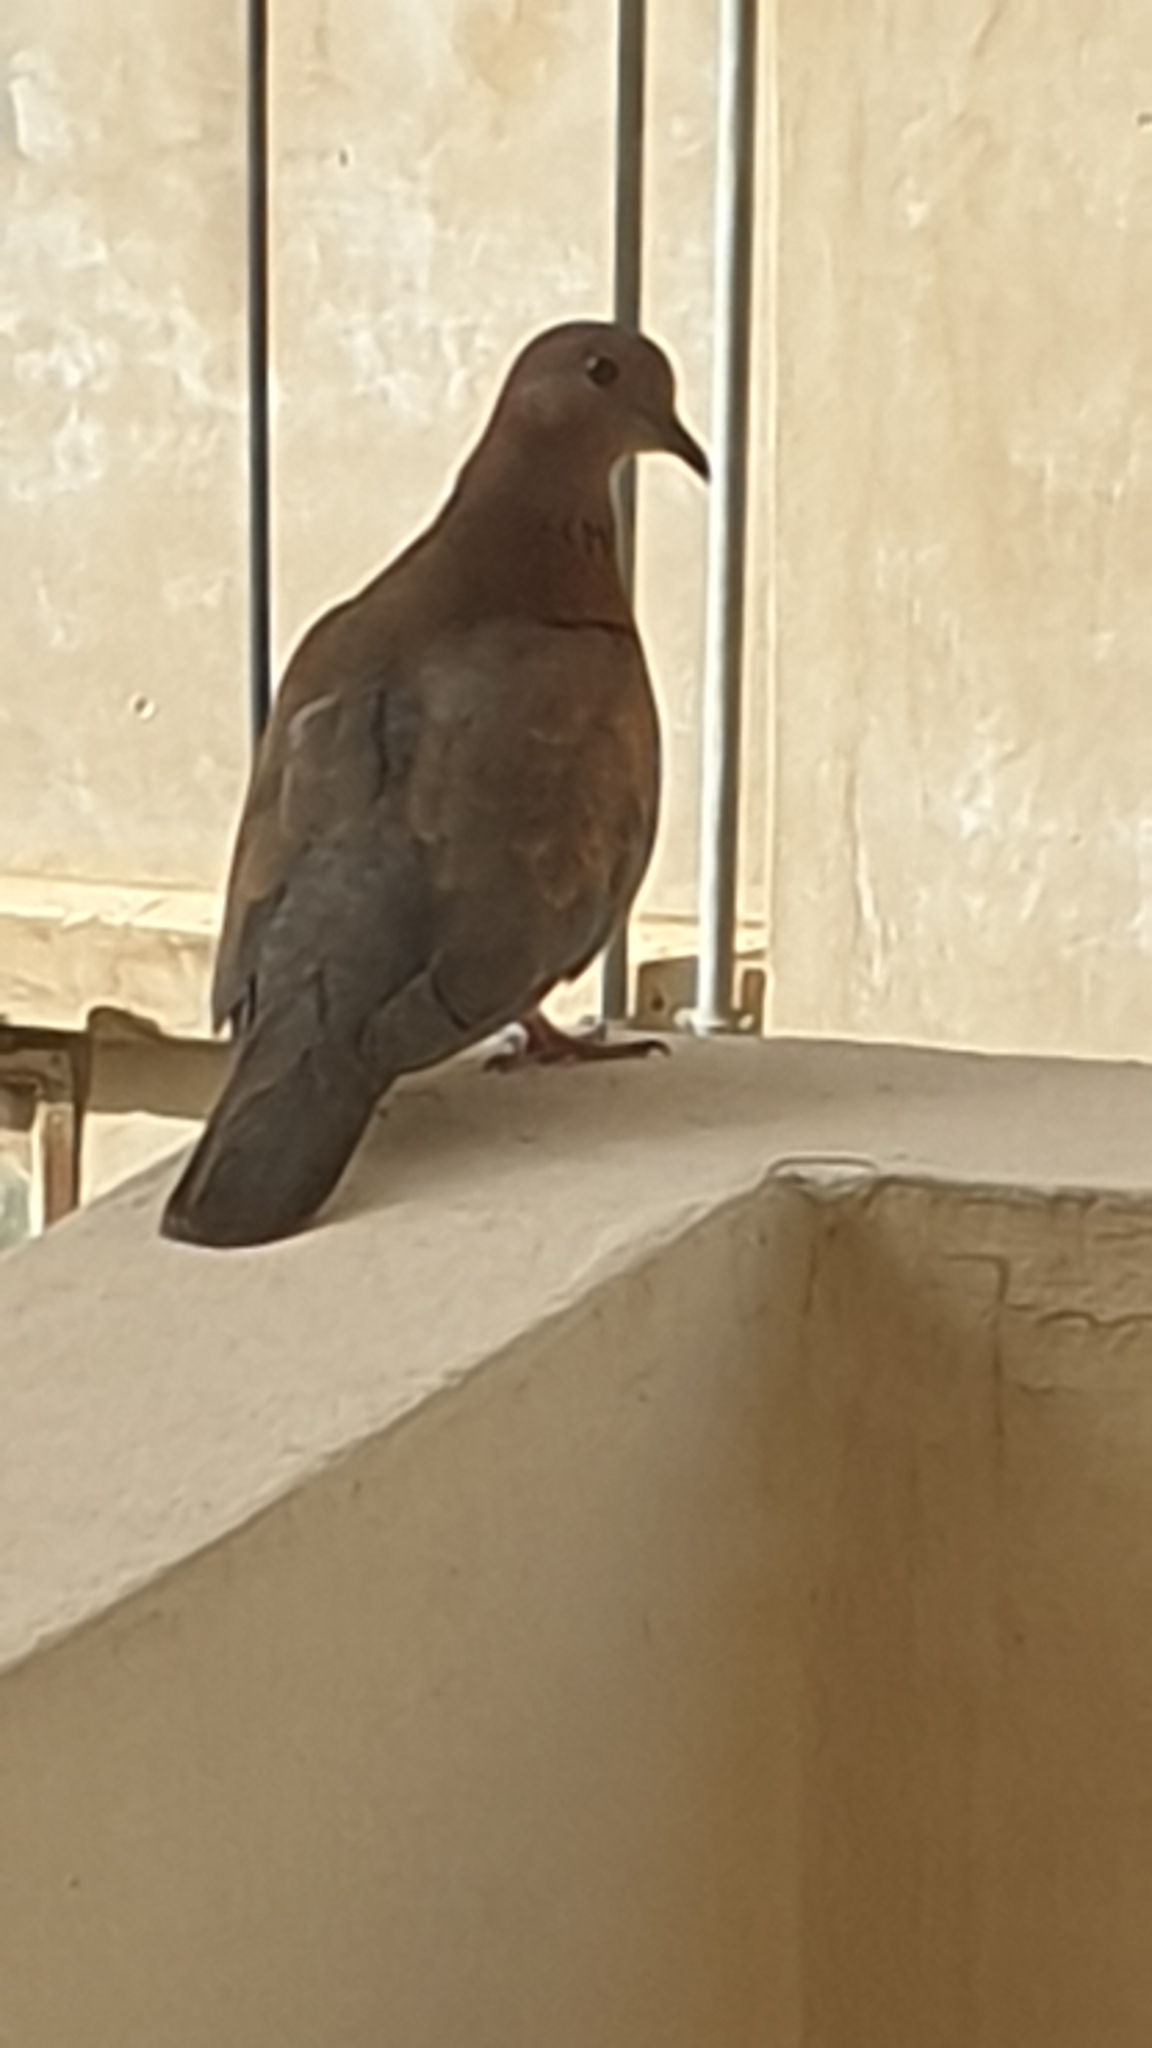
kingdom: Animalia
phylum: Chordata
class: Aves
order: Columbiformes
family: Columbidae
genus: Spilopelia
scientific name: Spilopelia senegalensis
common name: Laughing dove
